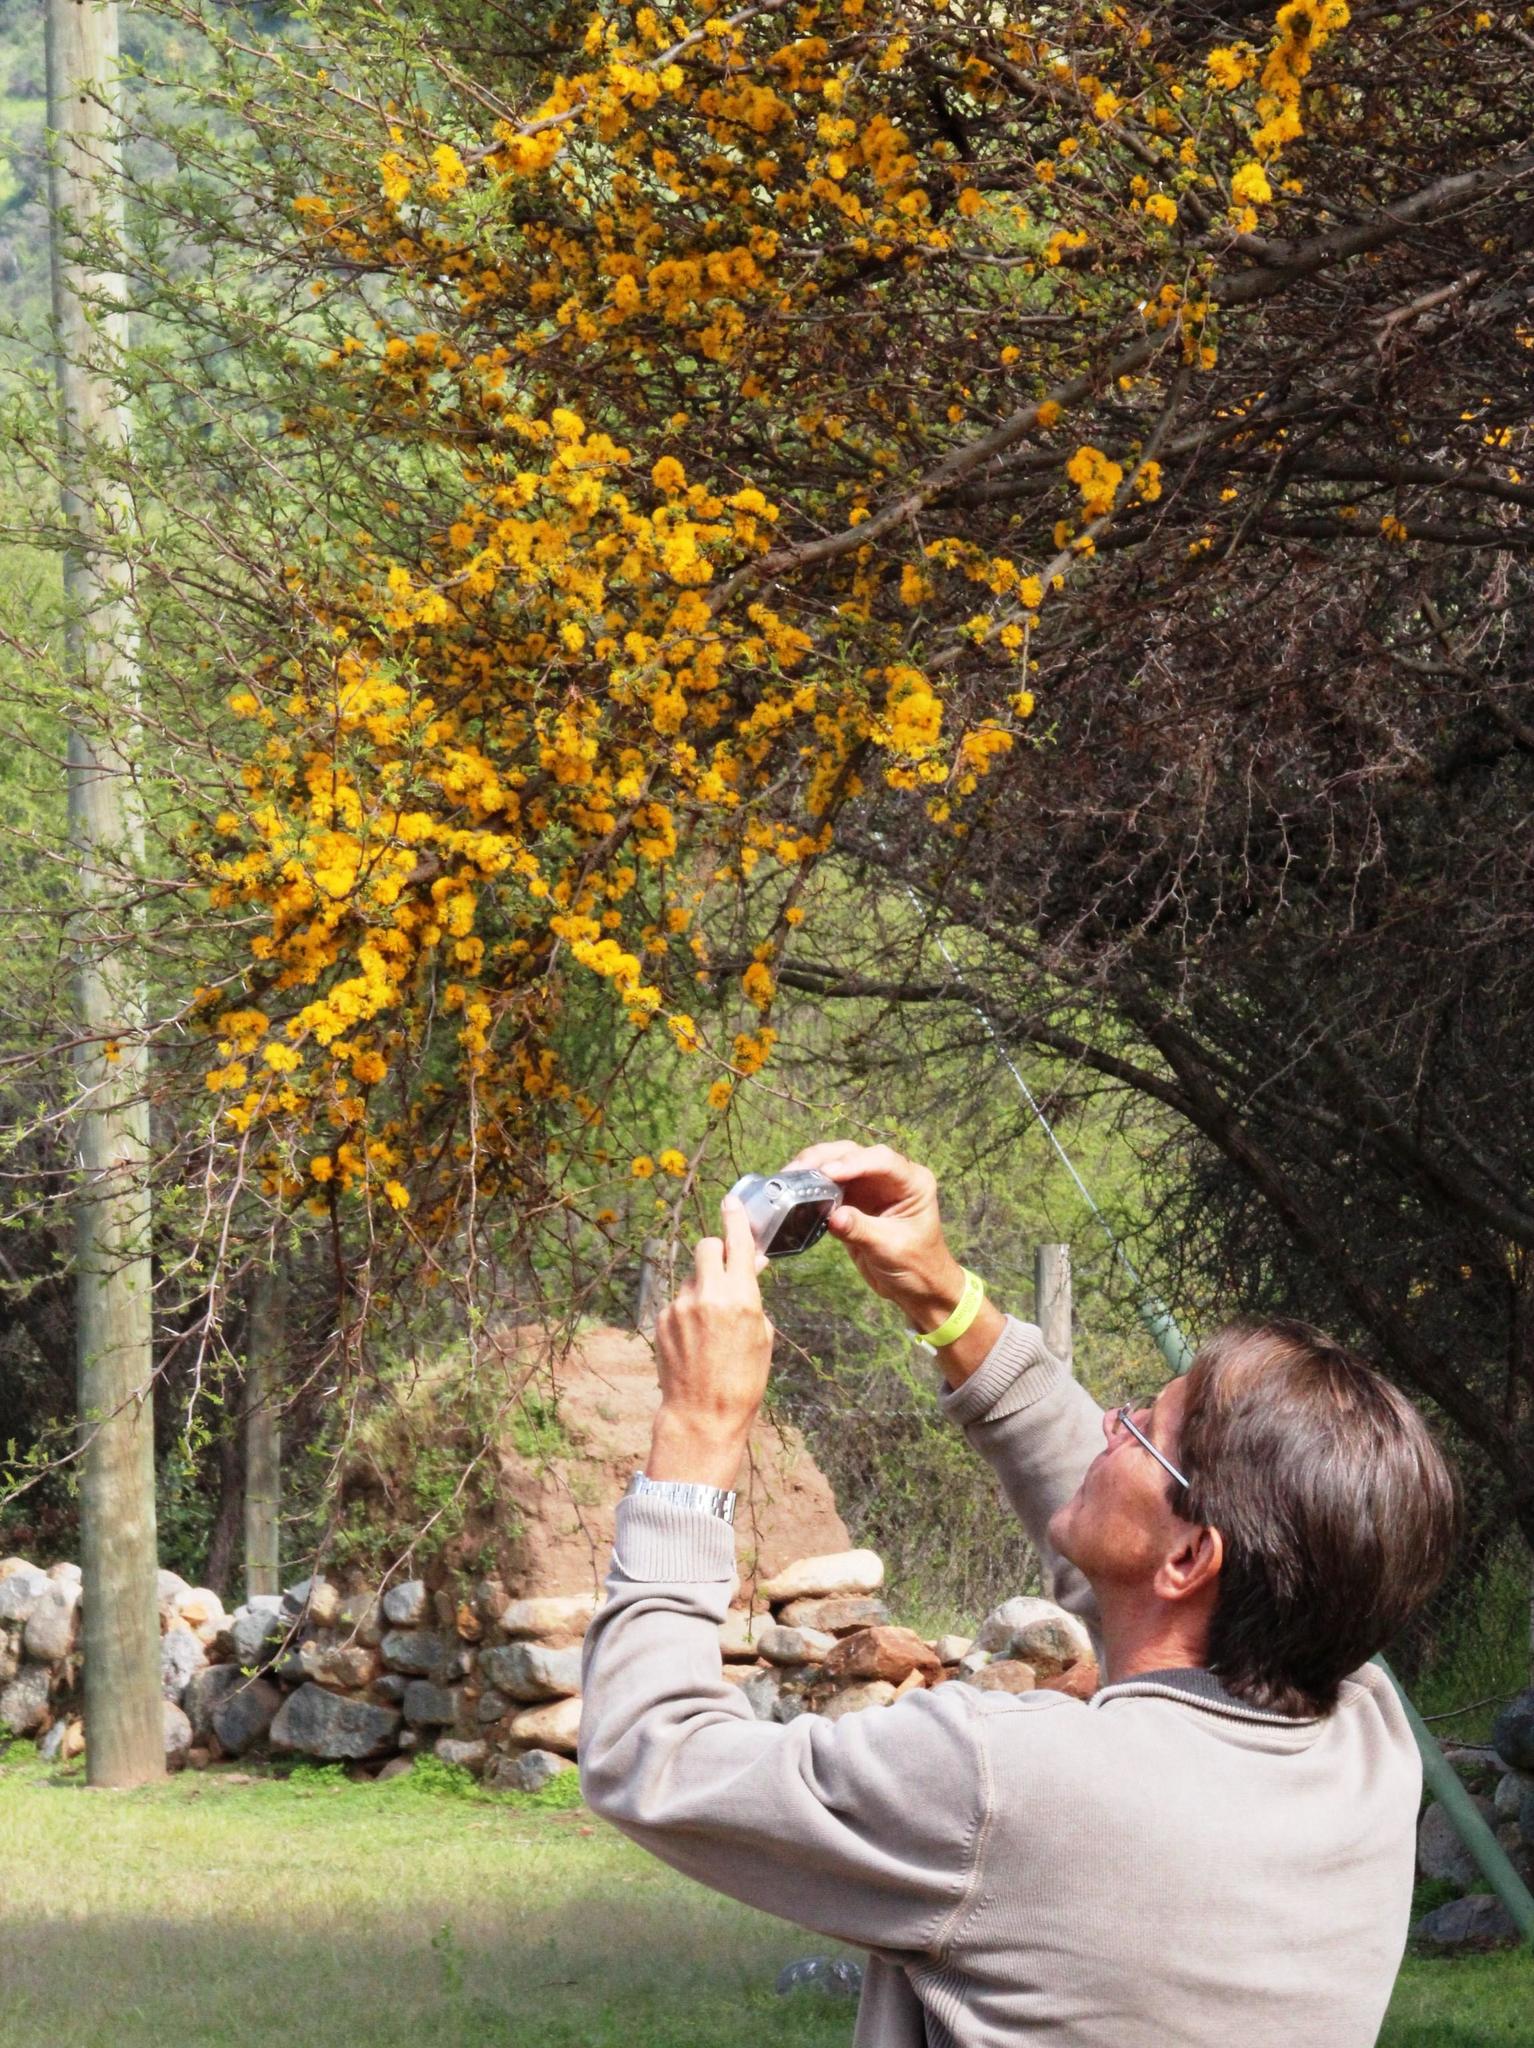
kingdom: Plantae
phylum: Tracheophyta
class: Magnoliopsida
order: Fabales
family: Fabaceae
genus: Vachellia
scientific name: Vachellia caven
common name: Roman cassie
